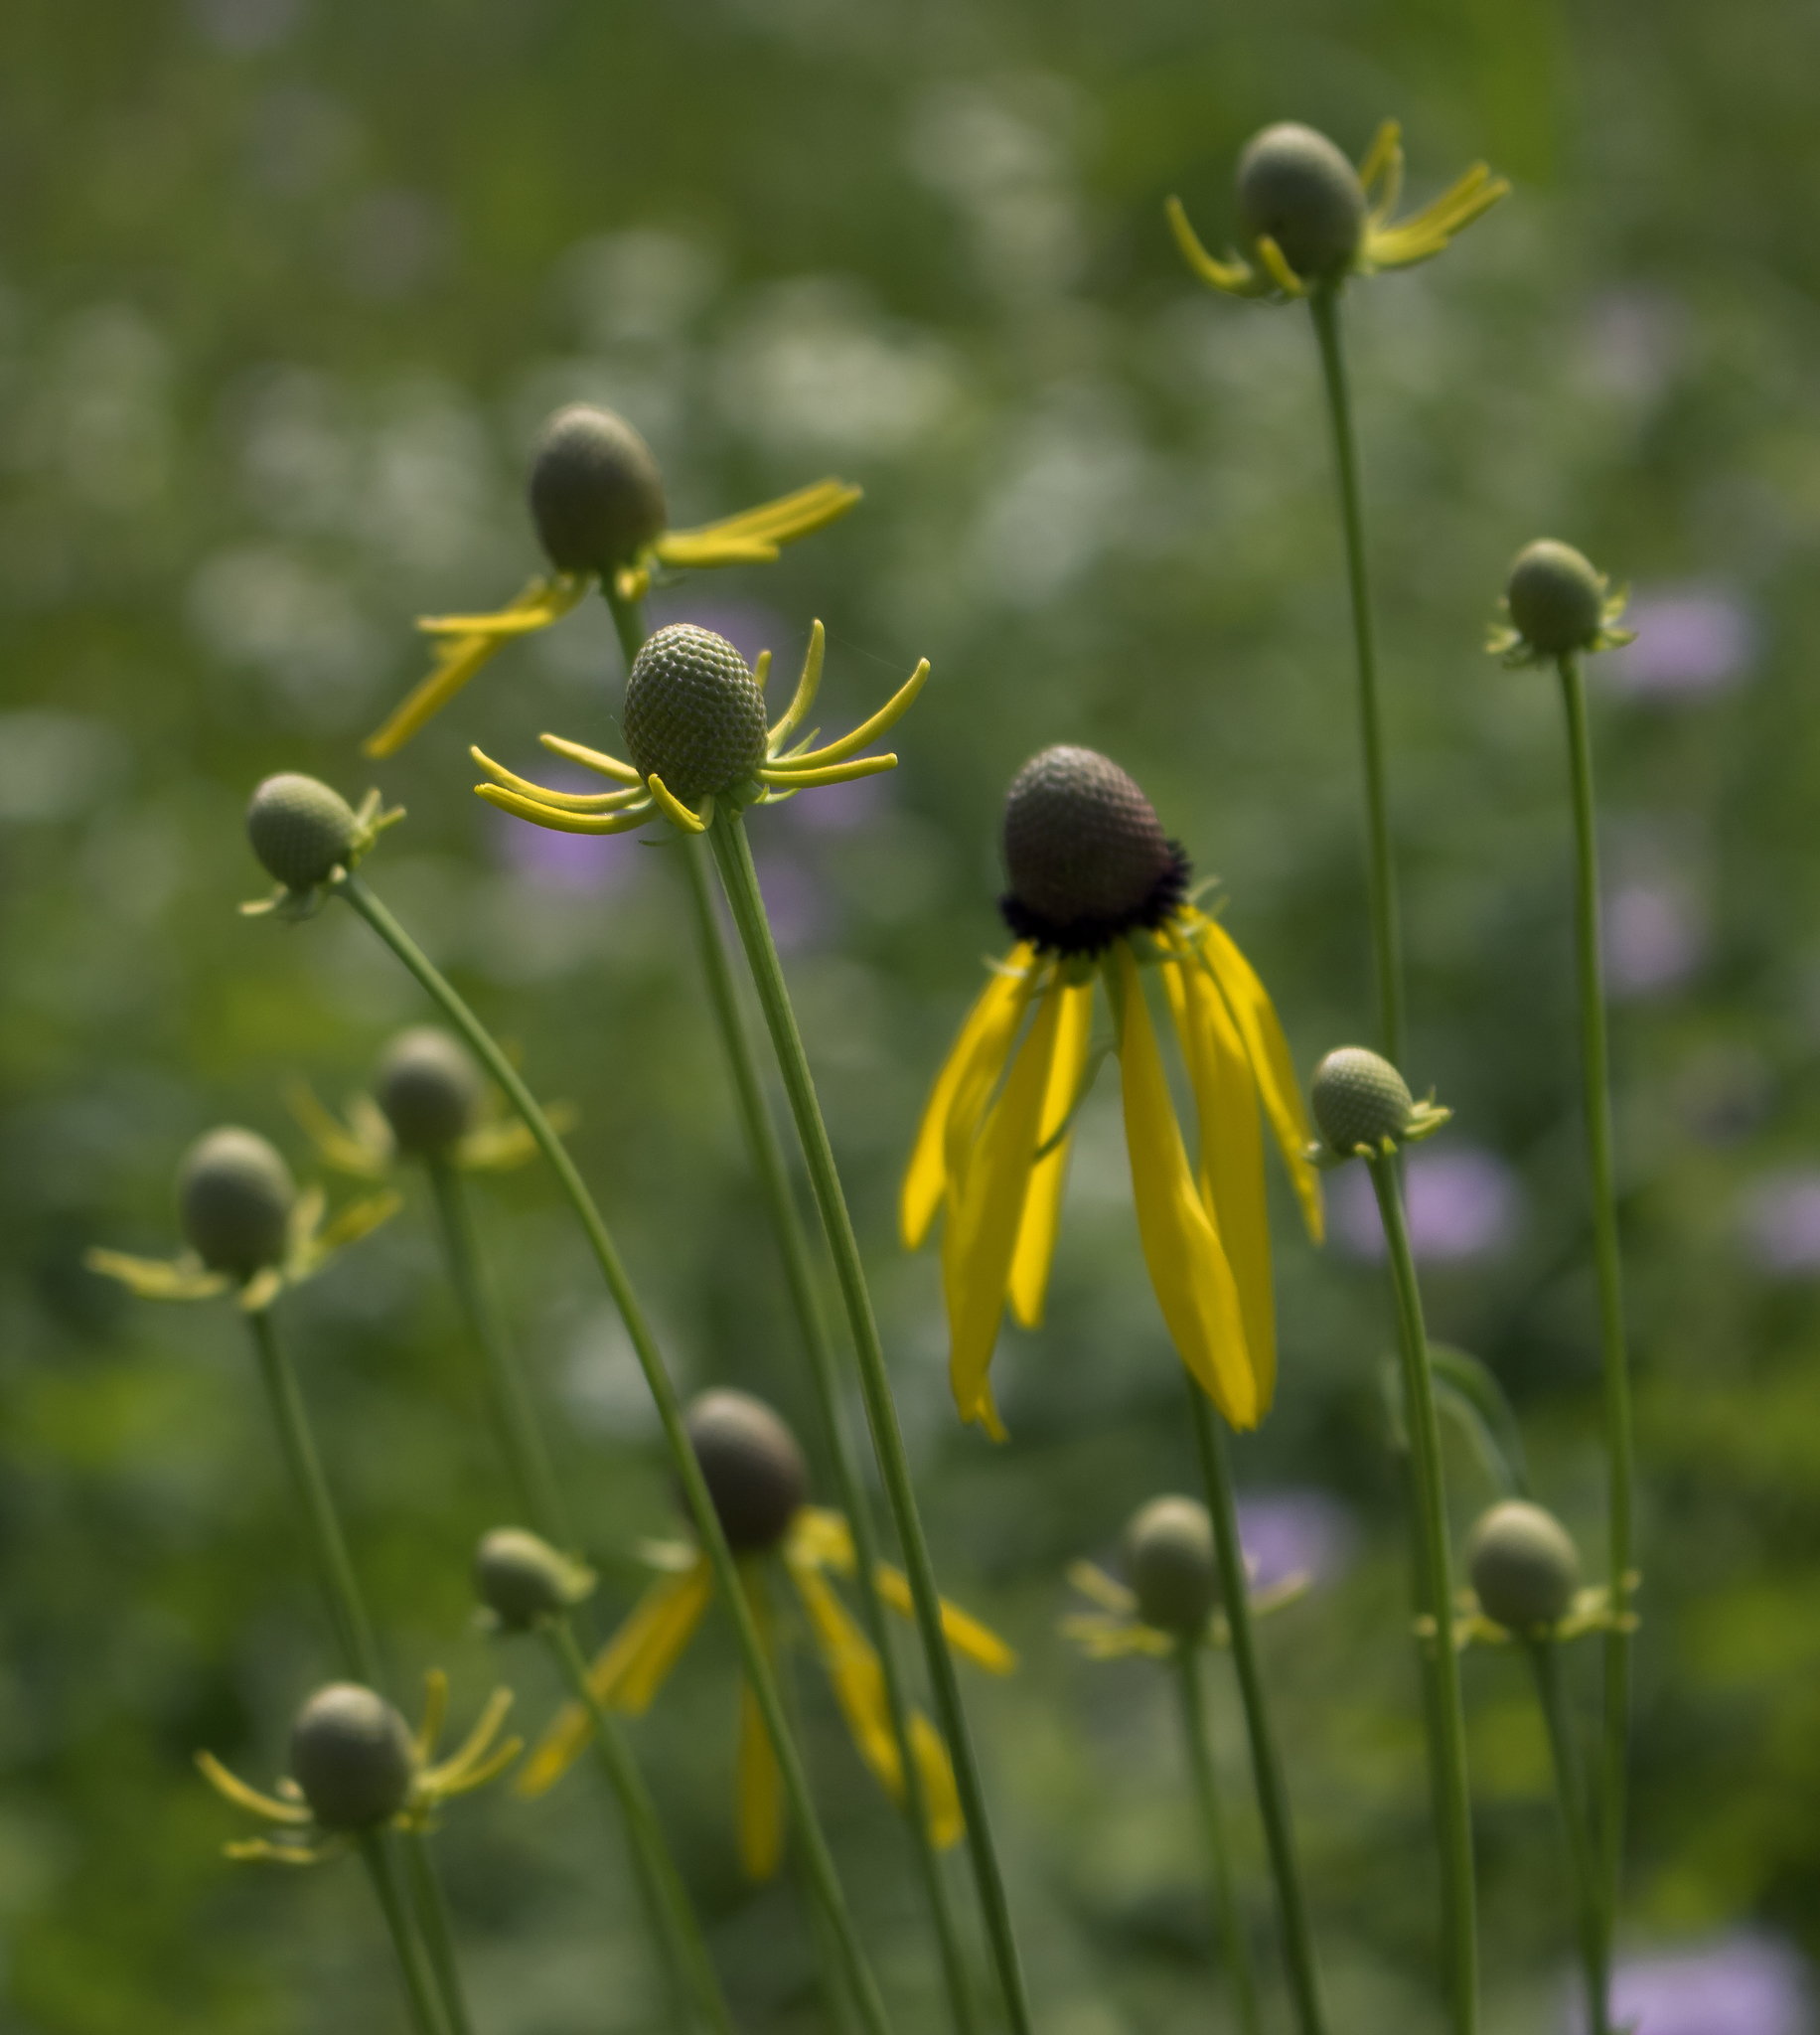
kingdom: Plantae
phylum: Tracheophyta
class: Magnoliopsida
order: Asterales
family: Asteraceae
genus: Ratibida
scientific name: Ratibida pinnata
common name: Drooping prairie-coneflower
